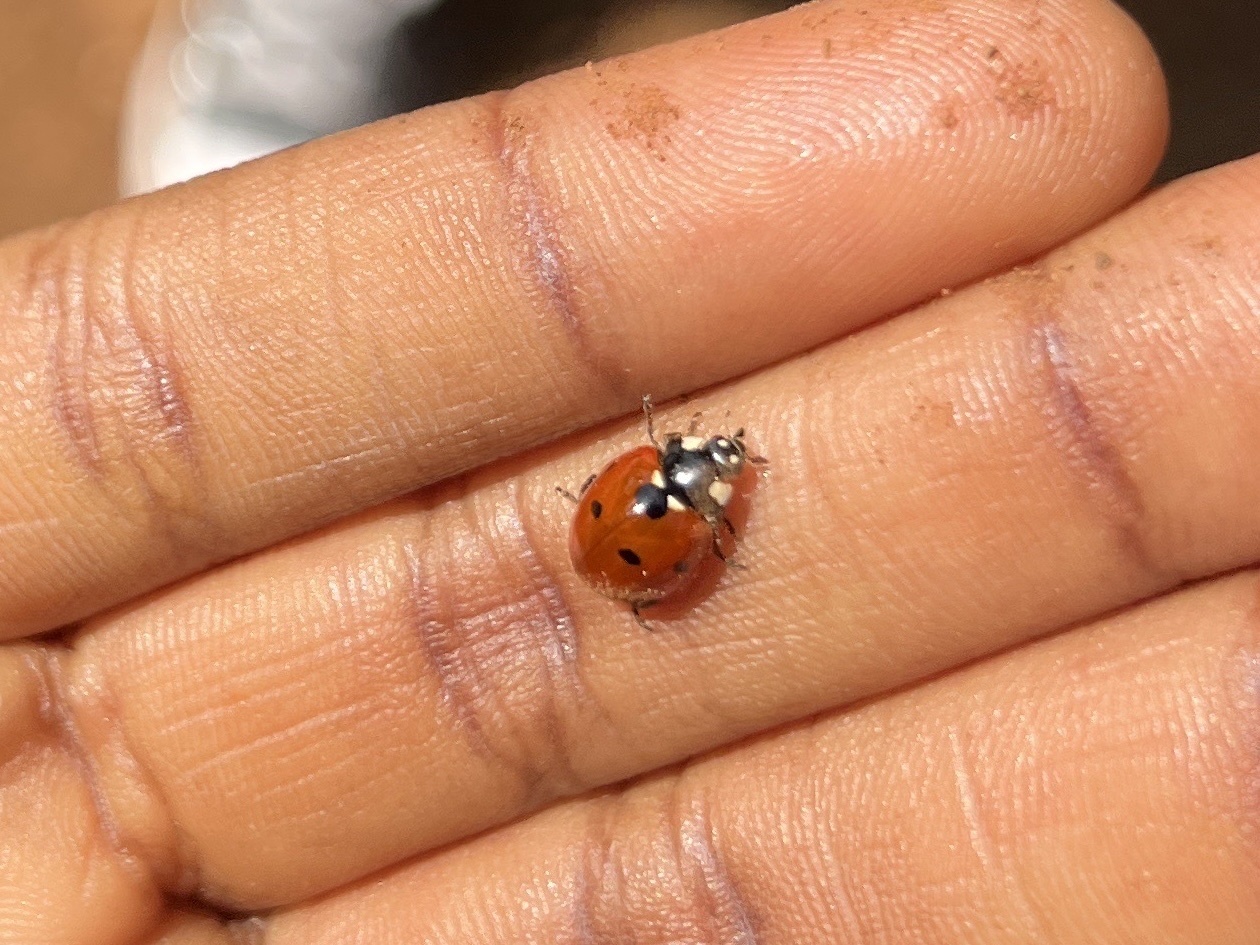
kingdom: Animalia
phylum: Arthropoda
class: Insecta
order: Coleoptera
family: Coccinellidae
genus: Coccinella
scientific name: Coccinella septempunctata
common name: Sevenspotted lady beetle
